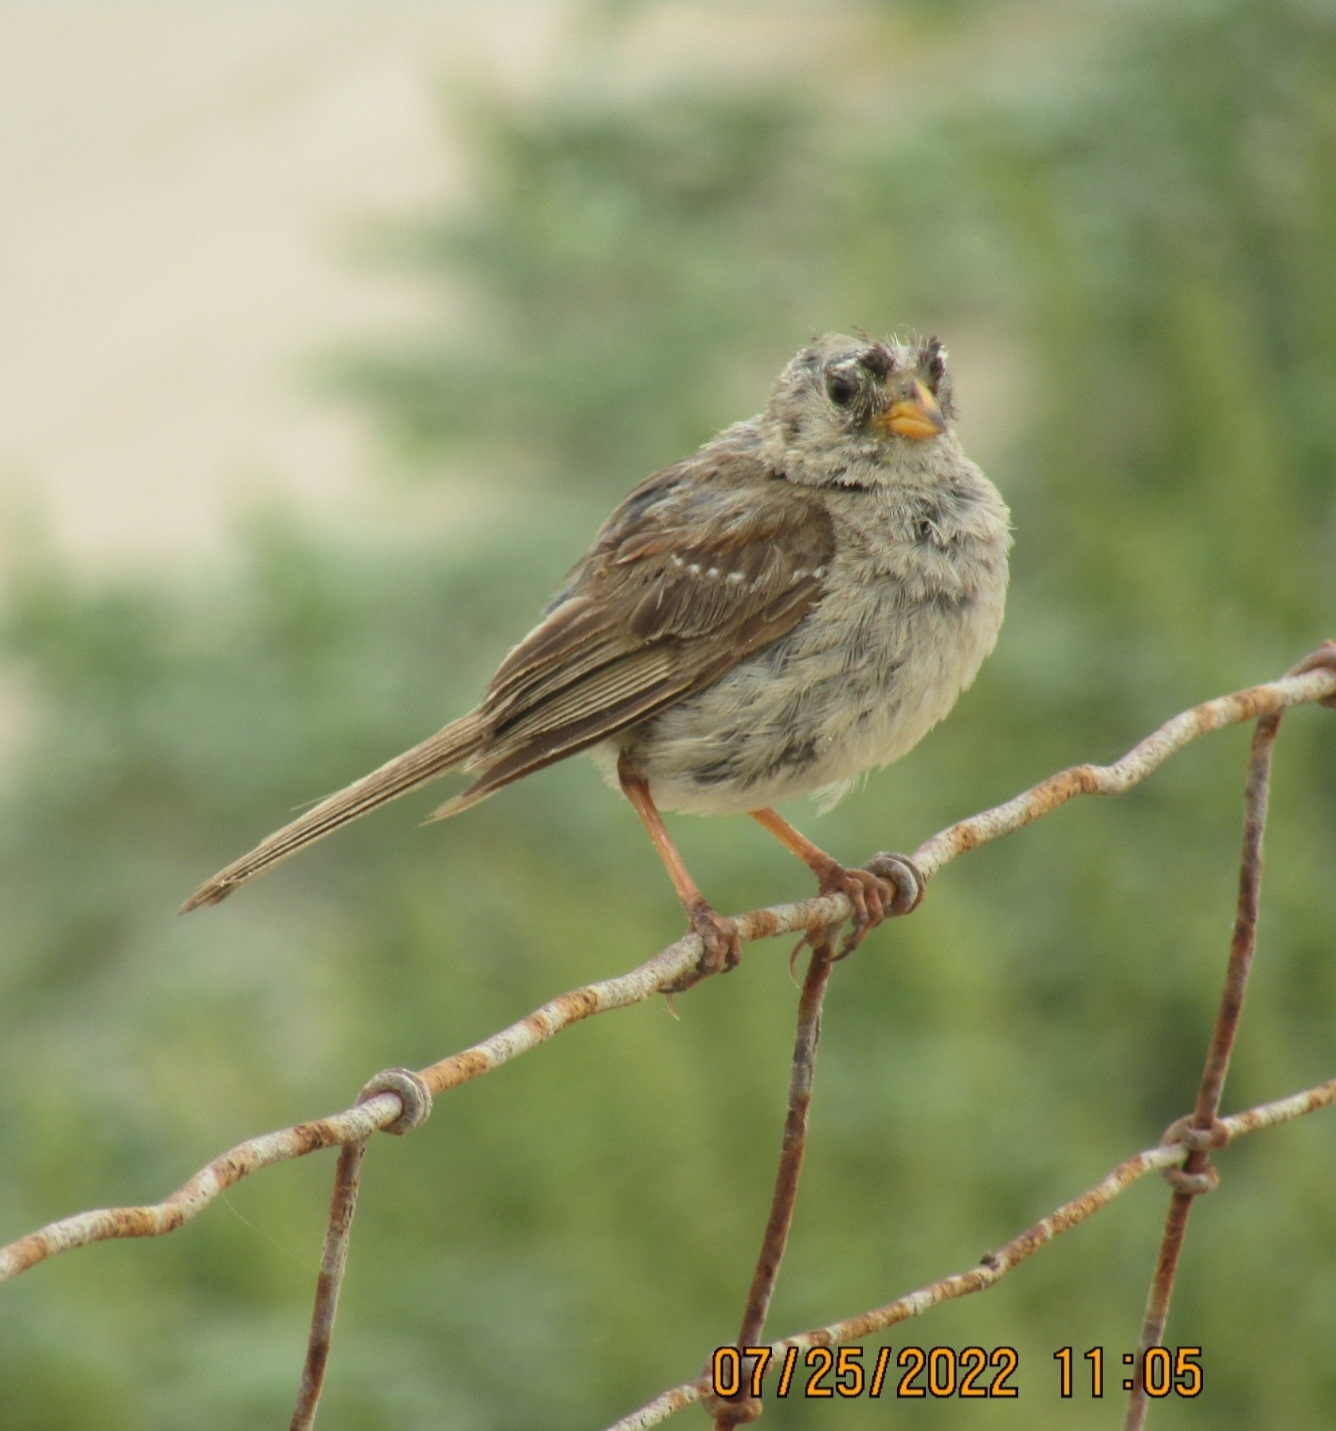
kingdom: Animalia
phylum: Chordata
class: Aves
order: Passeriformes
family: Passerellidae
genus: Zonotrichia
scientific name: Zonotrichia leucophrys
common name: White-crowned sparrow
